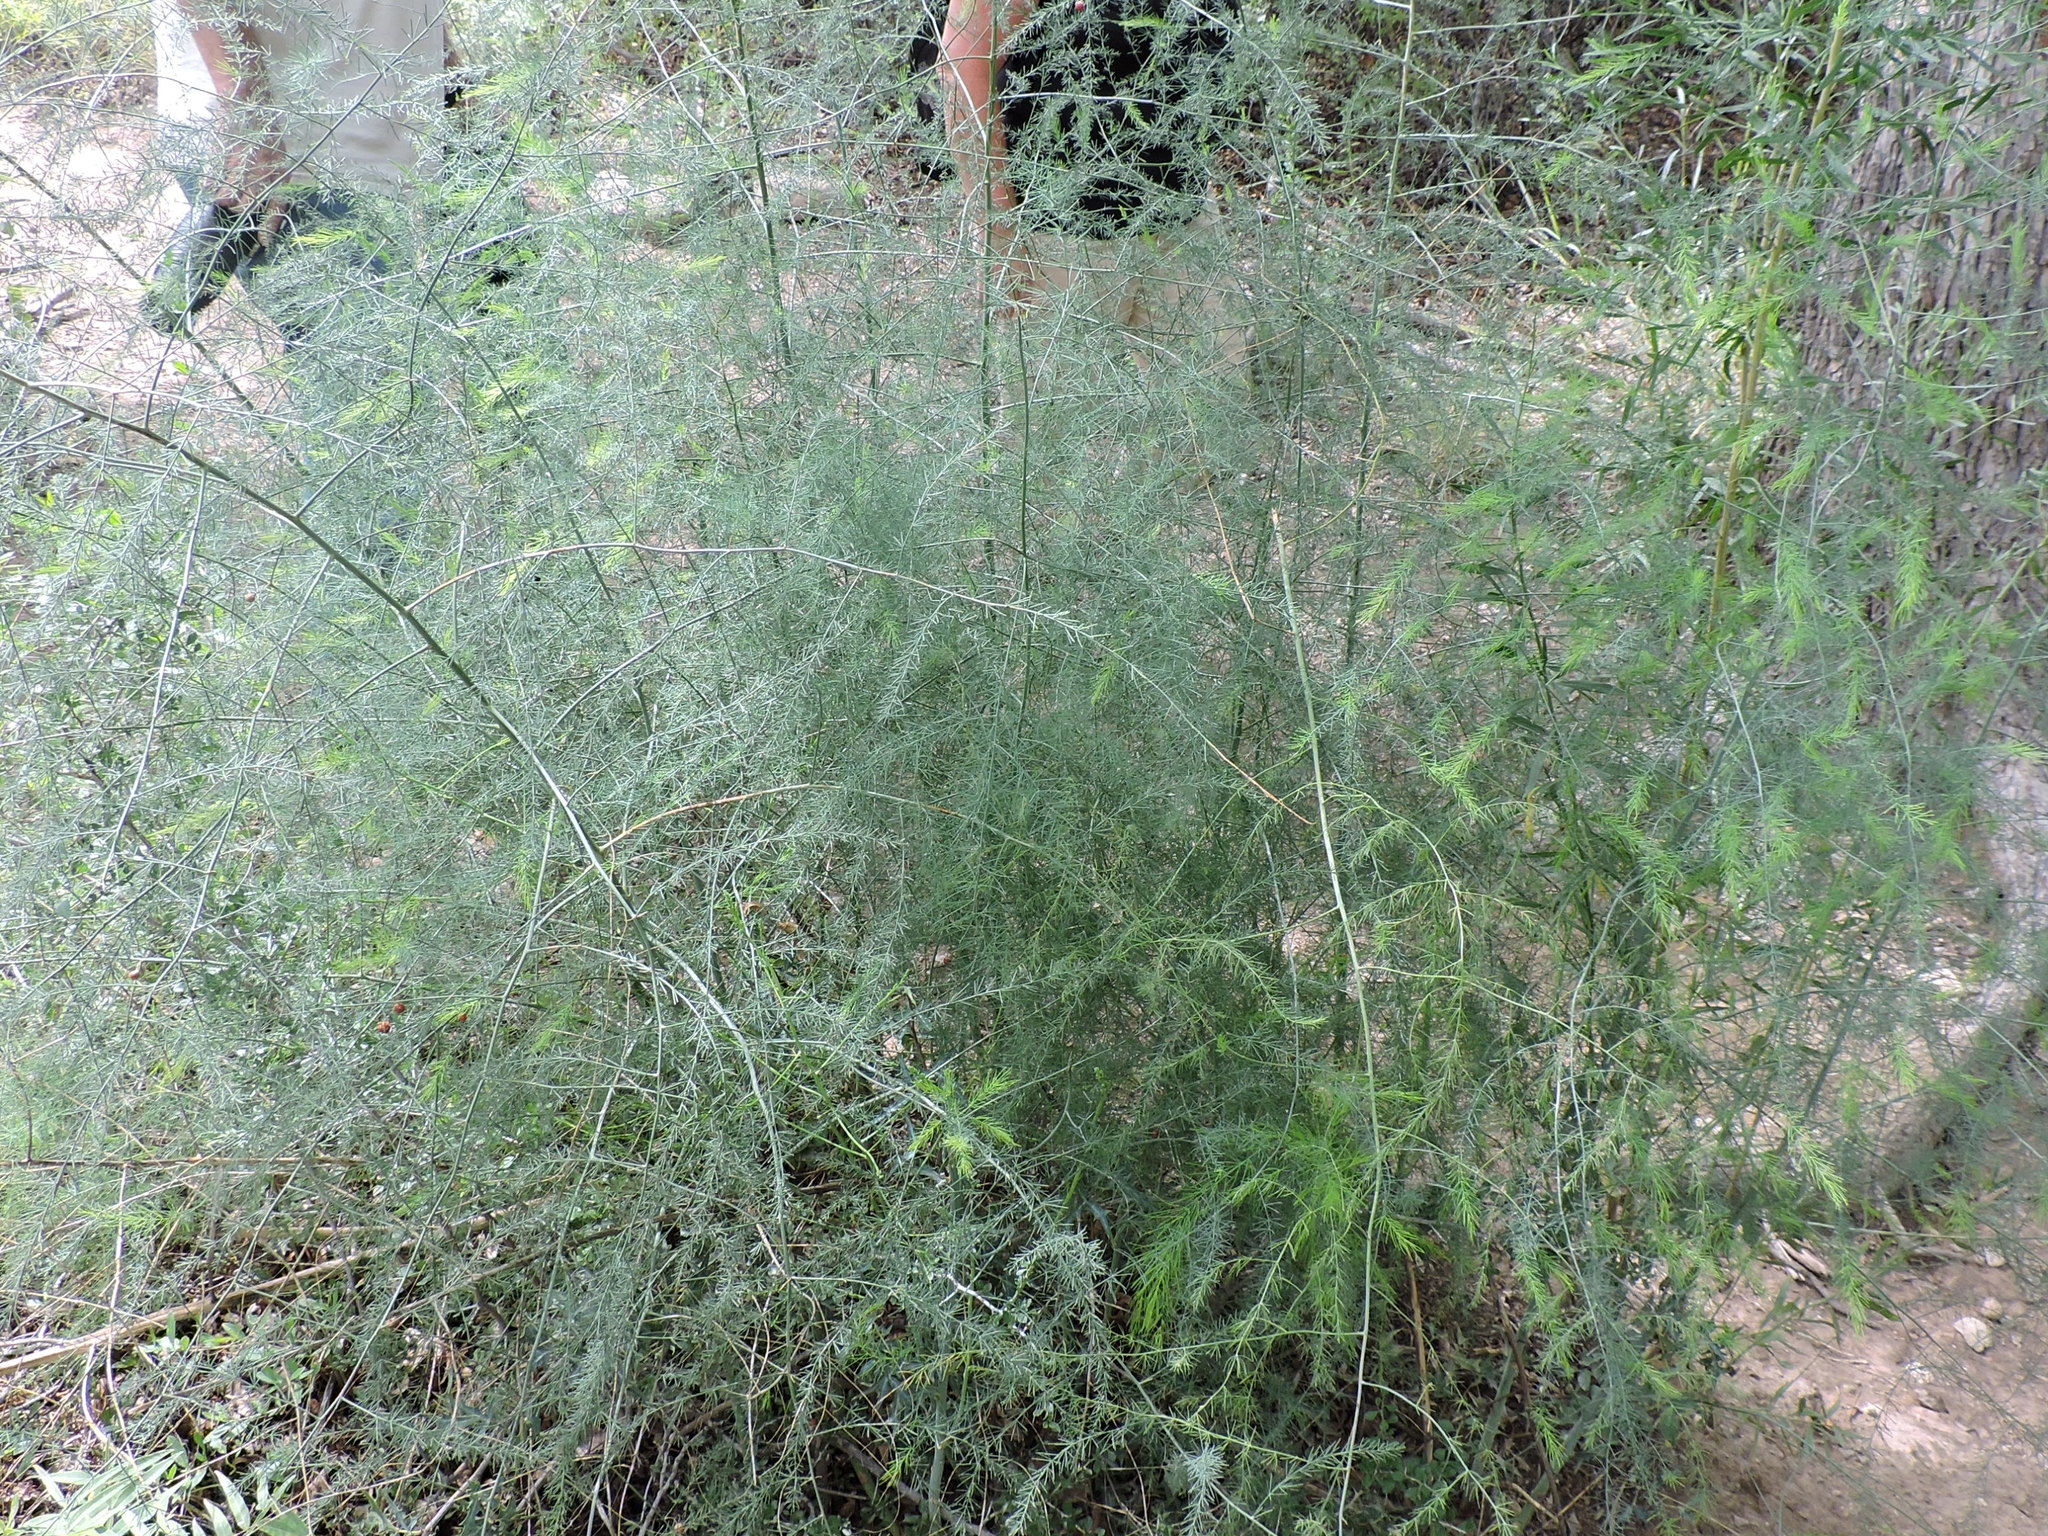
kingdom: Plantae
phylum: Tracheophyta
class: Liliopsida
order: Asparagales
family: Asparagaceae
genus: Asparagus
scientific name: Asparagus officinalis
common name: Garden asparagus
